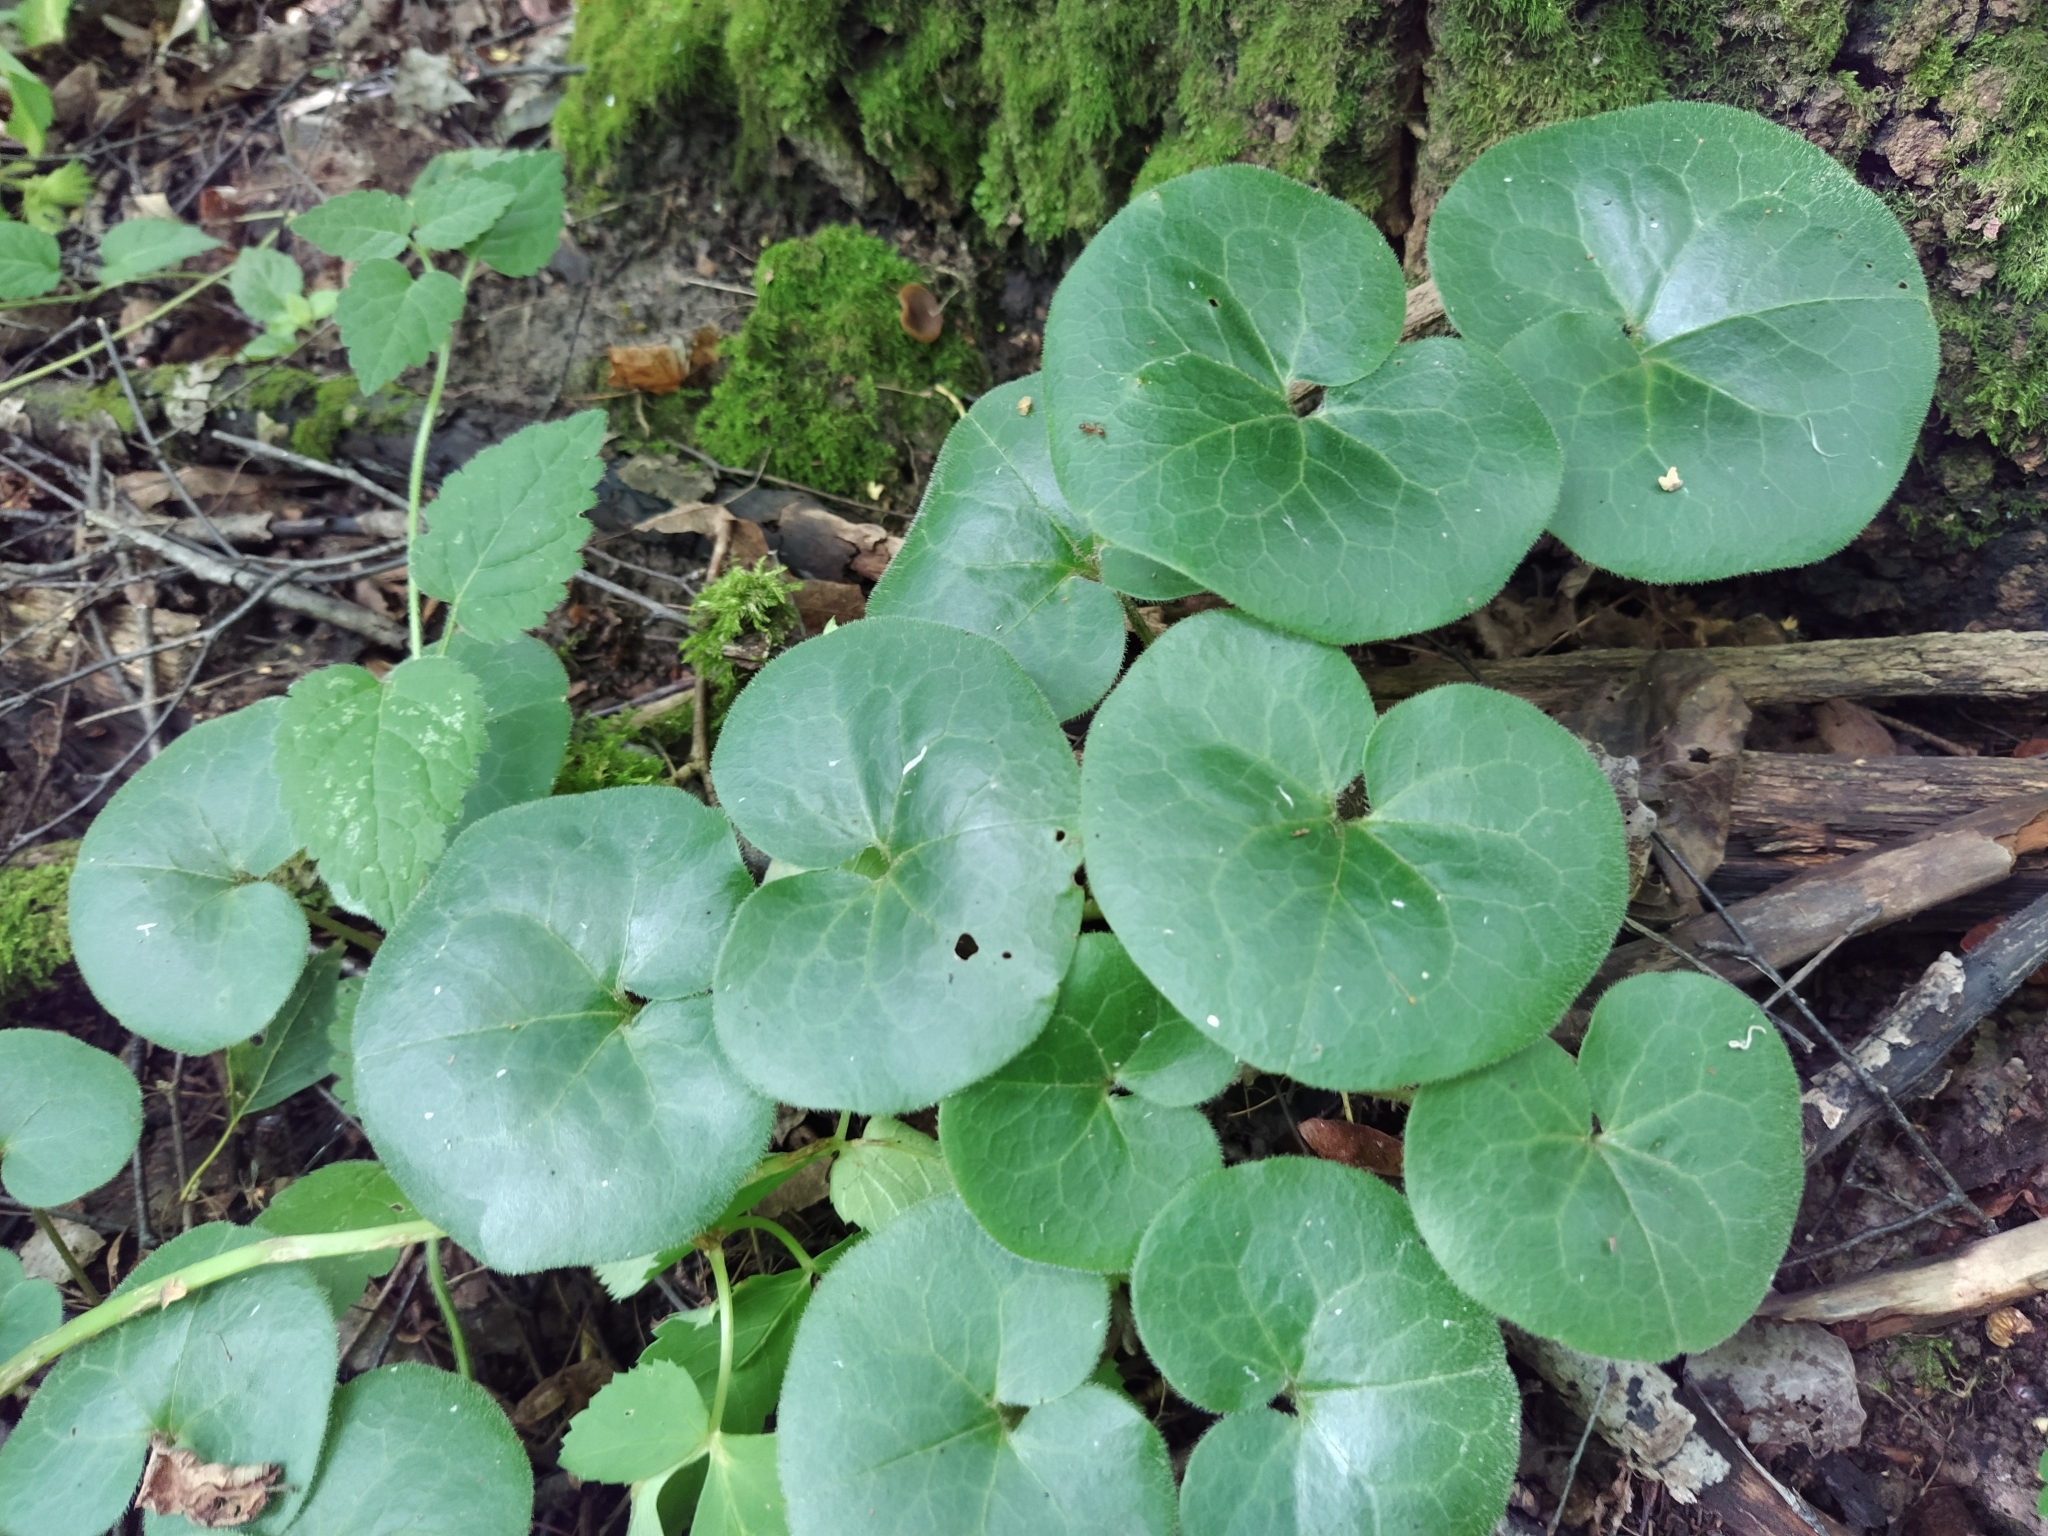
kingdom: Plantae
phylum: Tracheophyta
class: Magnoliopsida
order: Piperales
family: Aristolochiaceae
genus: Asarum
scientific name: Asarum europaeum
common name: Asarabacca
